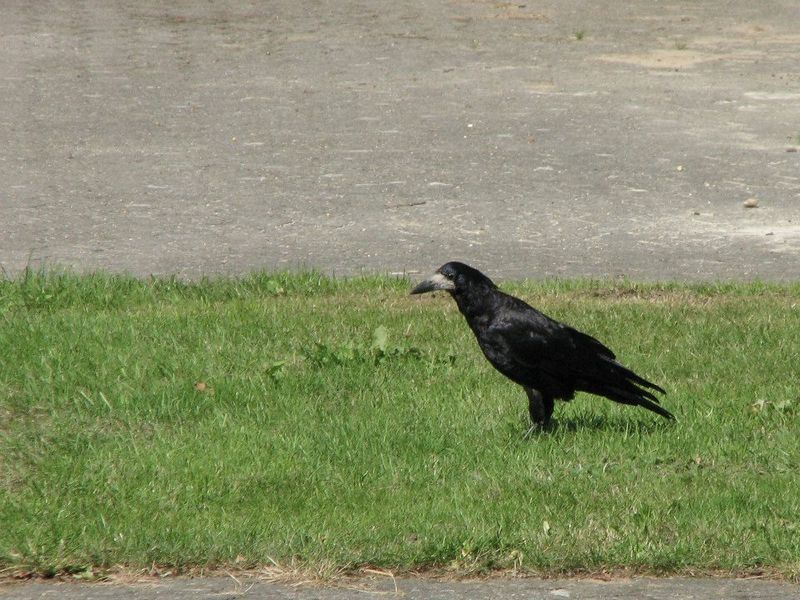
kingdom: Animalia
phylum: Chordata
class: Aves
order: Passeriformes
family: Corvidae
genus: Corvus
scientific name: Corvus frugilegus
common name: Rook
